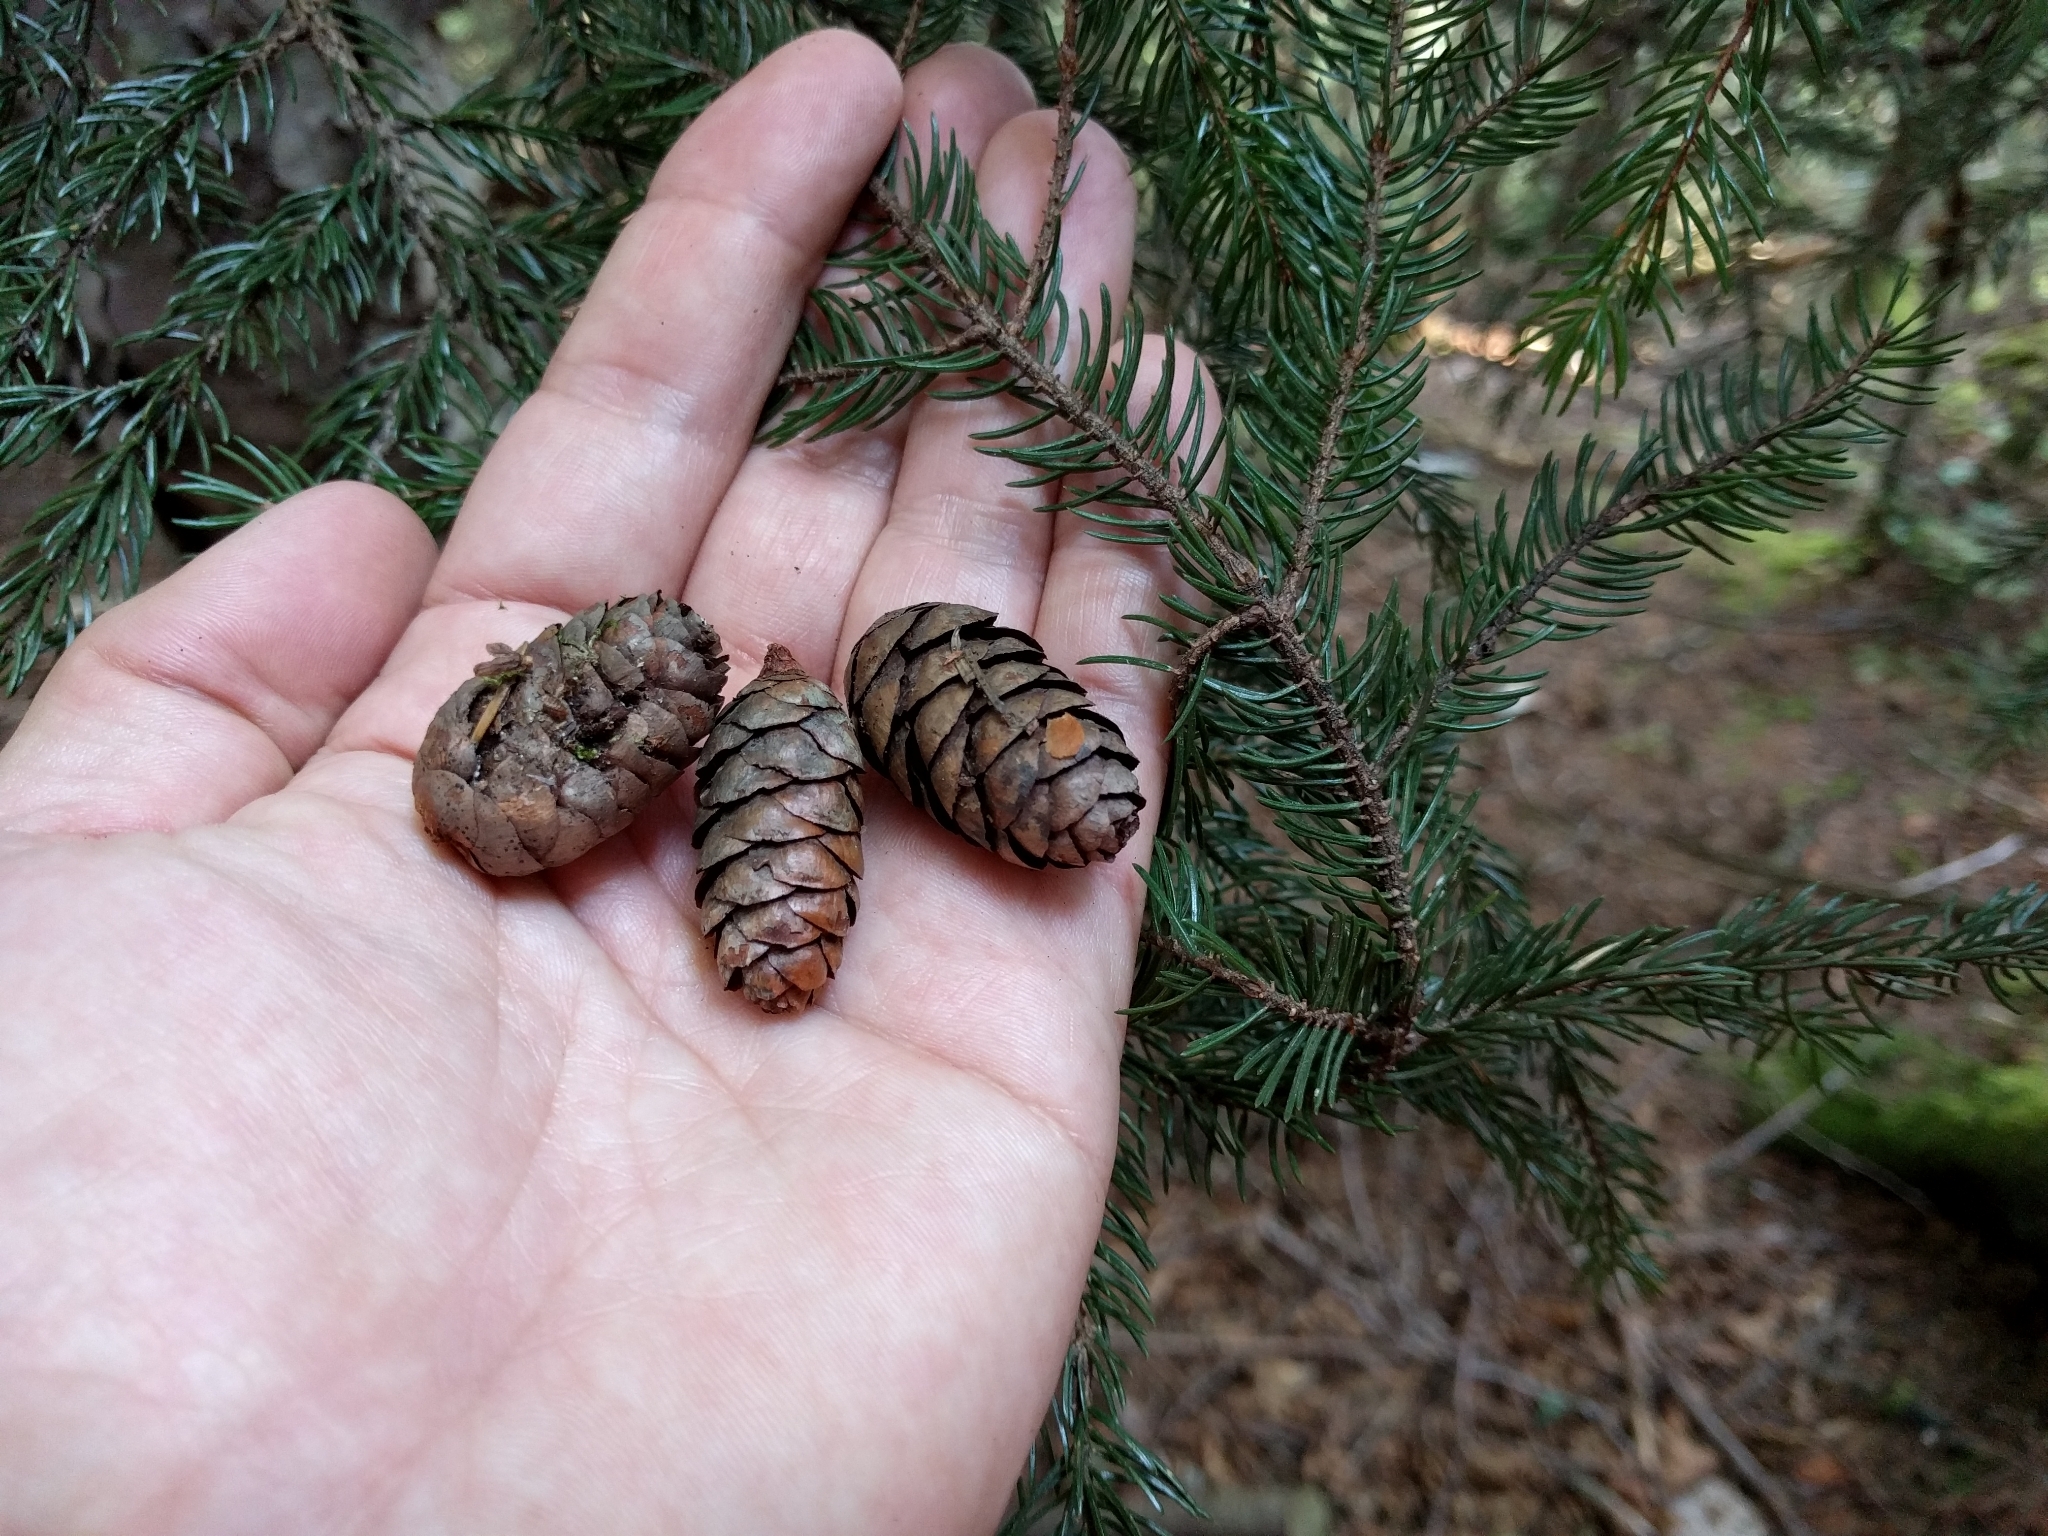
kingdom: Plantae
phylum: Tracheophyta
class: Pinopsida
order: Pinales
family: Pinaceae
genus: Picea
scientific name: Picea rubens
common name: Red spruce
